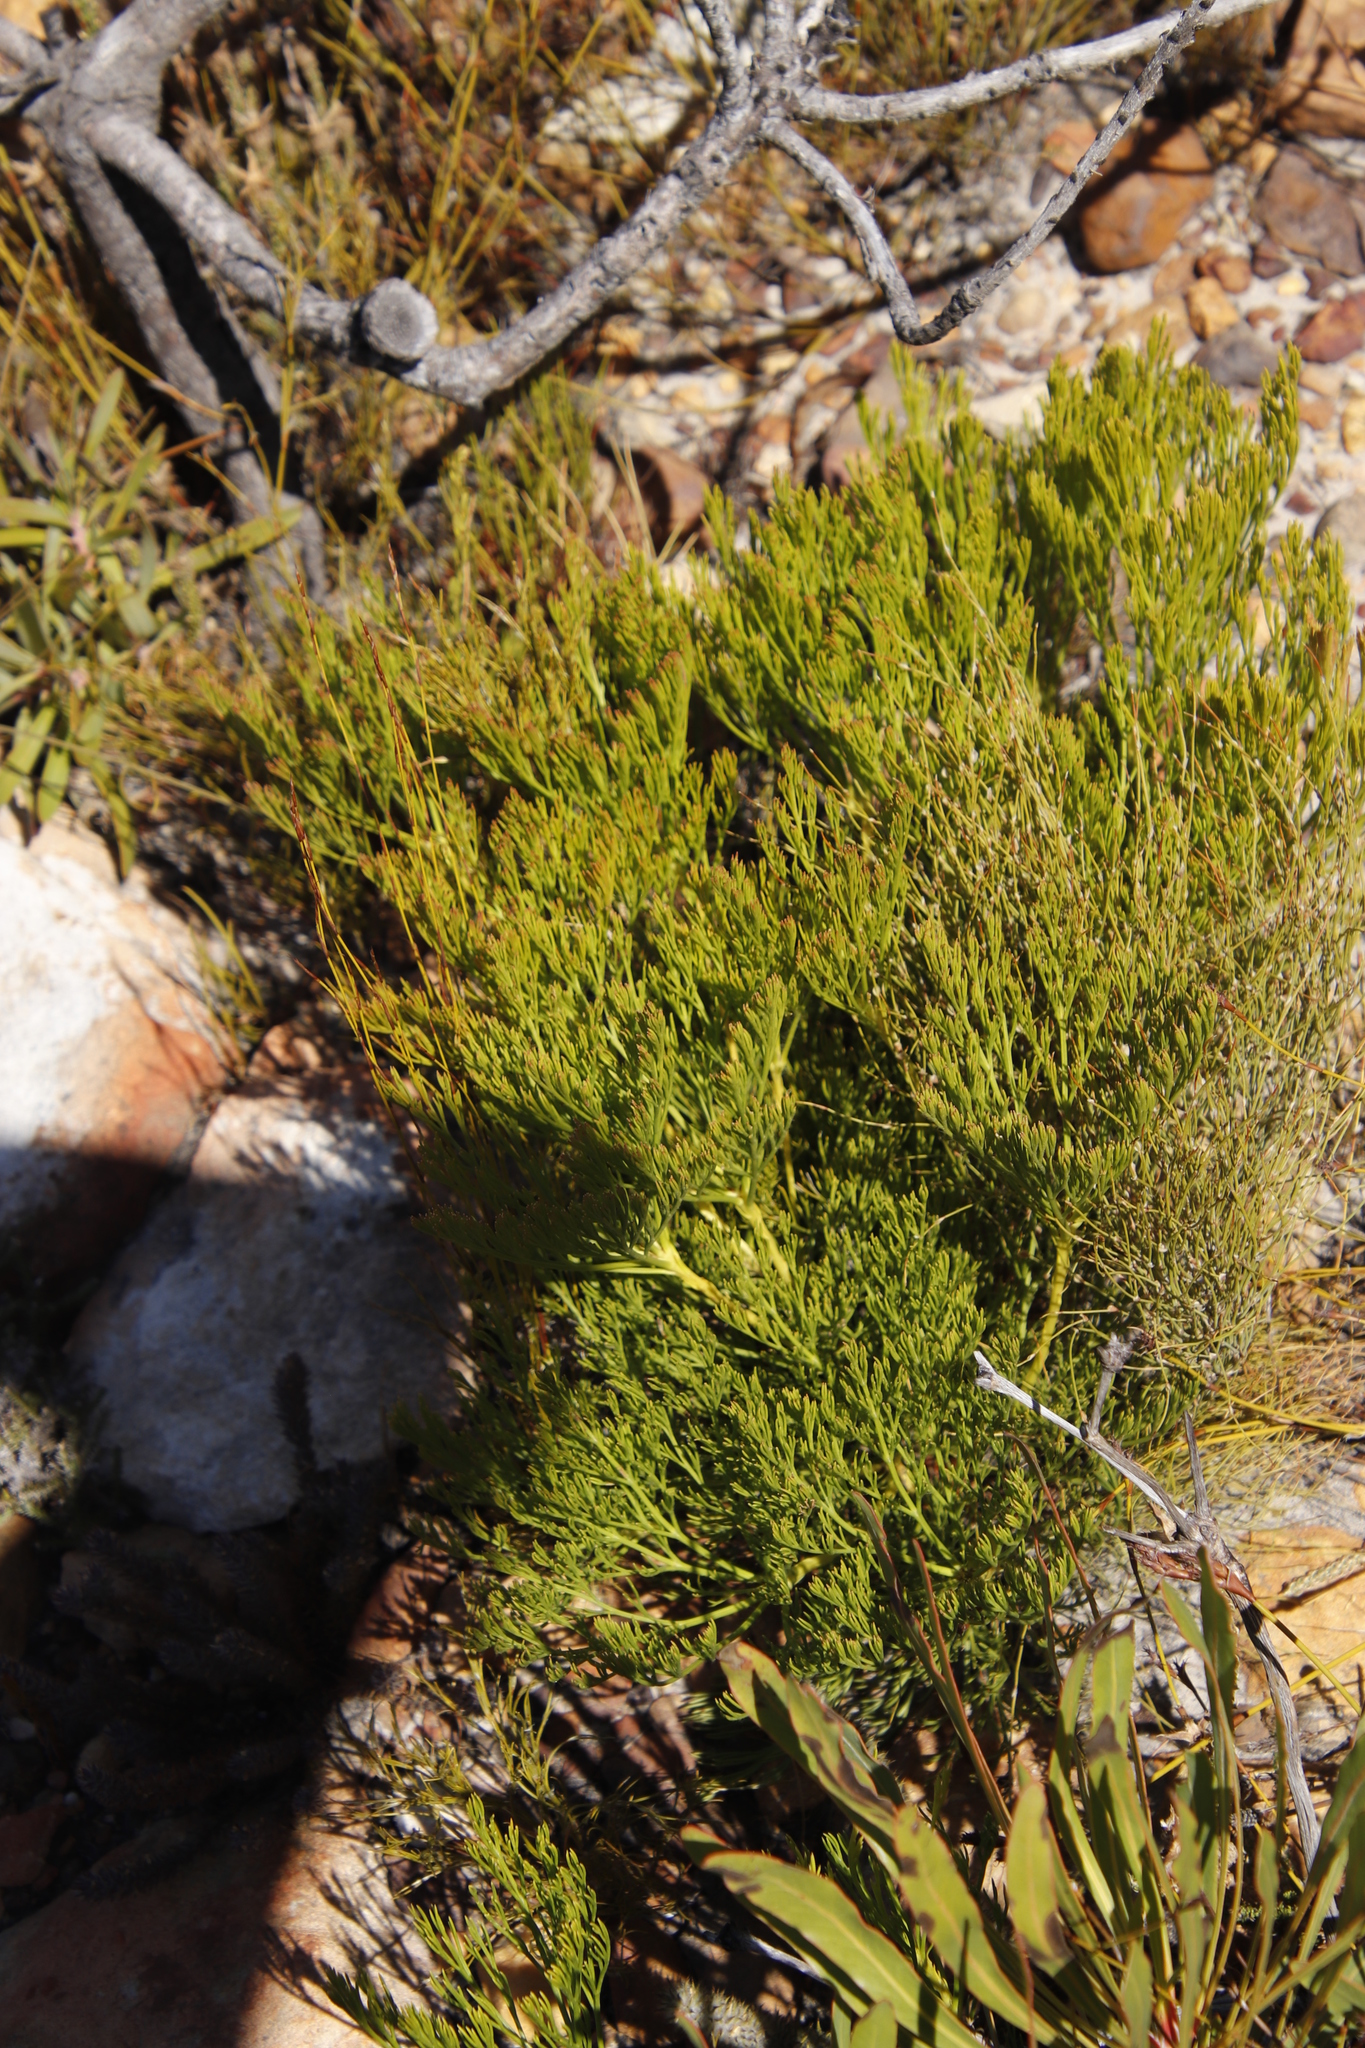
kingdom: Plantae
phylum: Tracheophyta
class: Magnoliopsida
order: Proteales
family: Proteaceae
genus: Paranomus
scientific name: Paranomus spicatus
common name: Kogelberg sceptre
